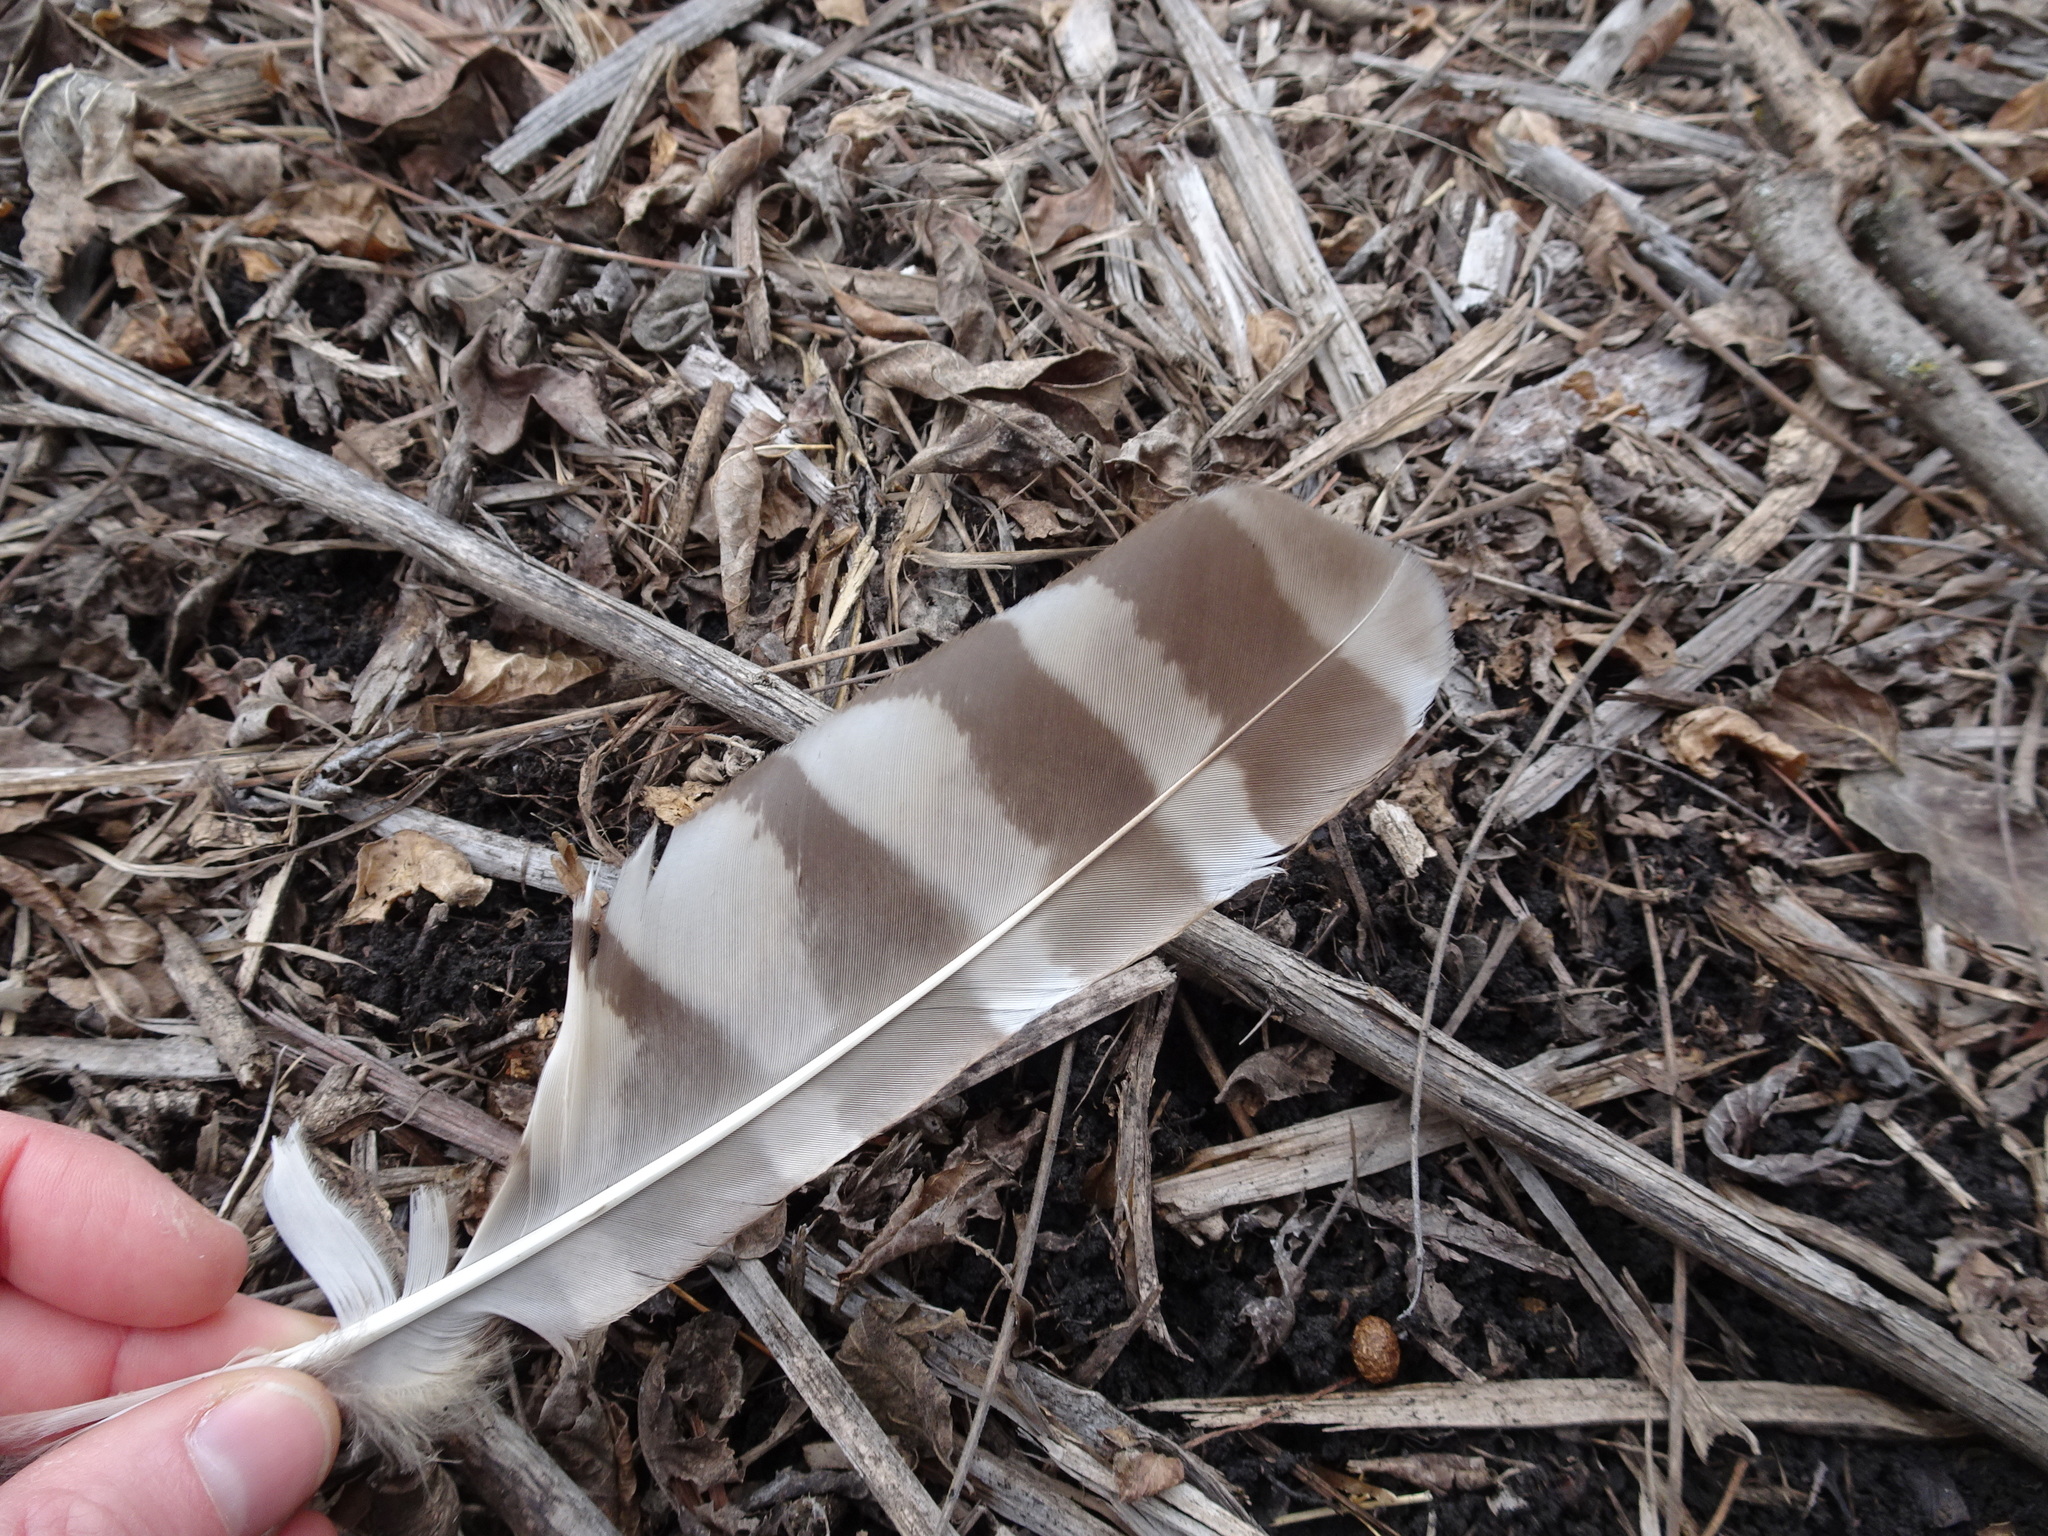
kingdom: Animalia
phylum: Chordata
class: Aves
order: Strigiformes
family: Strigidae
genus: Strix
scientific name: Strix varia
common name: Barred owl
